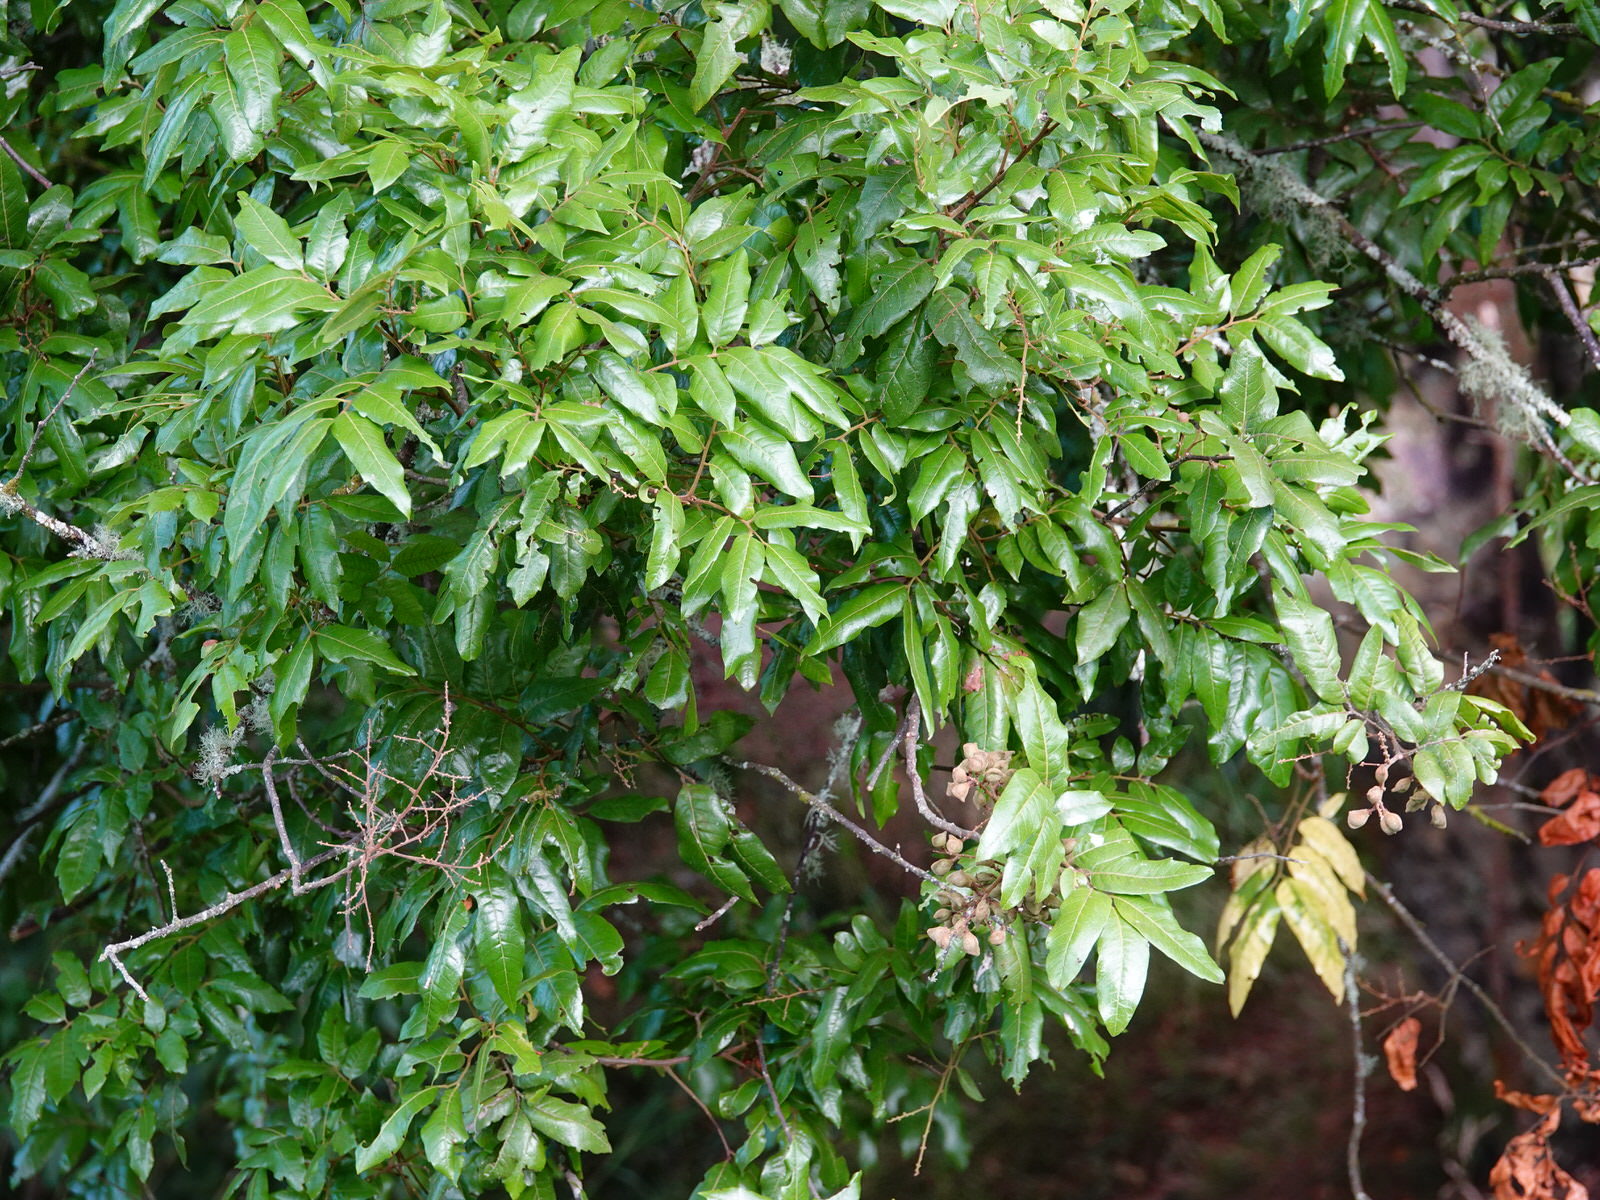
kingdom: Plantae
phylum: Tracheophyta
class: Magnoliopsida
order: Sapindales
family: Sapindaceae
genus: Alectryon
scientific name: Alectryon excelsus
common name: Three kings titoki
